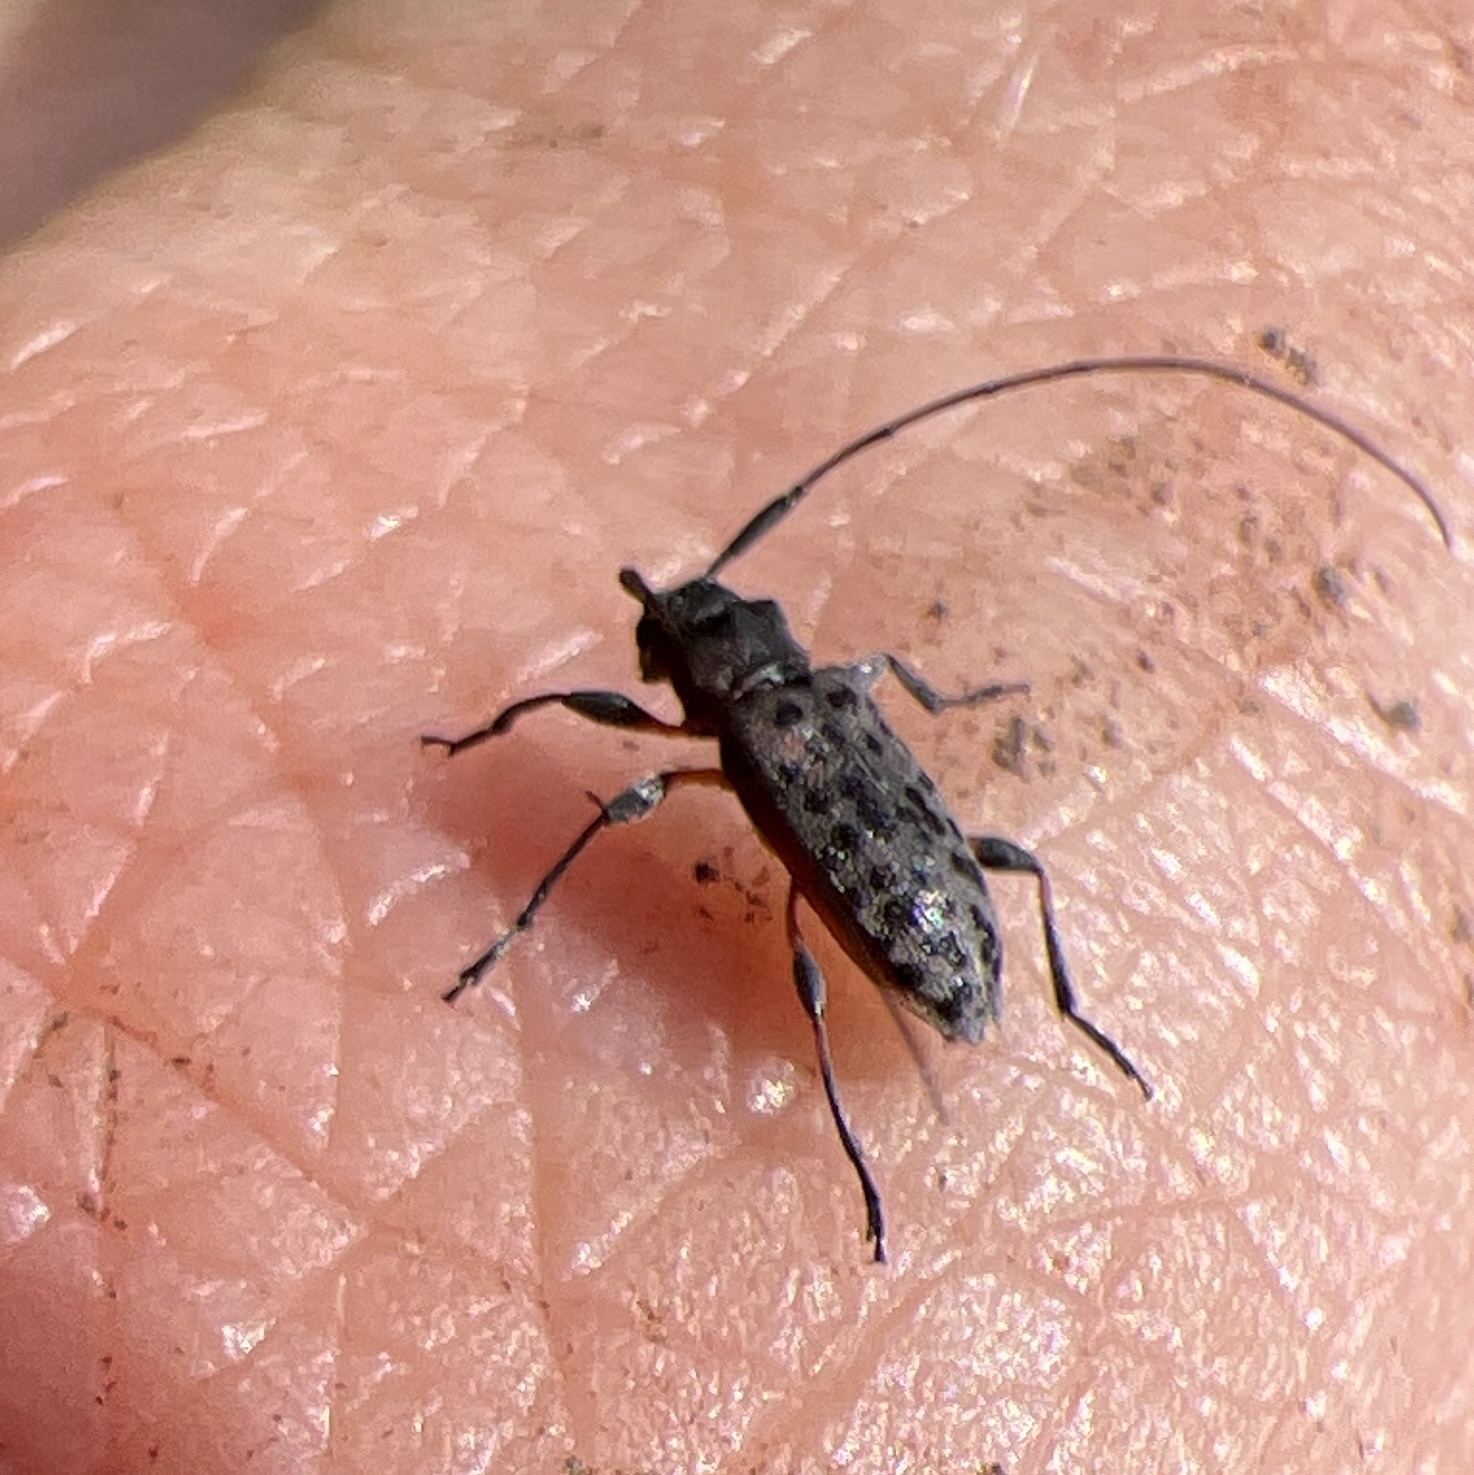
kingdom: Animalia
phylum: Arthropoda
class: Insecta
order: Coleoptera
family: Cerambycidae
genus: Hyperplatys
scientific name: Hyperplatys aspersa
